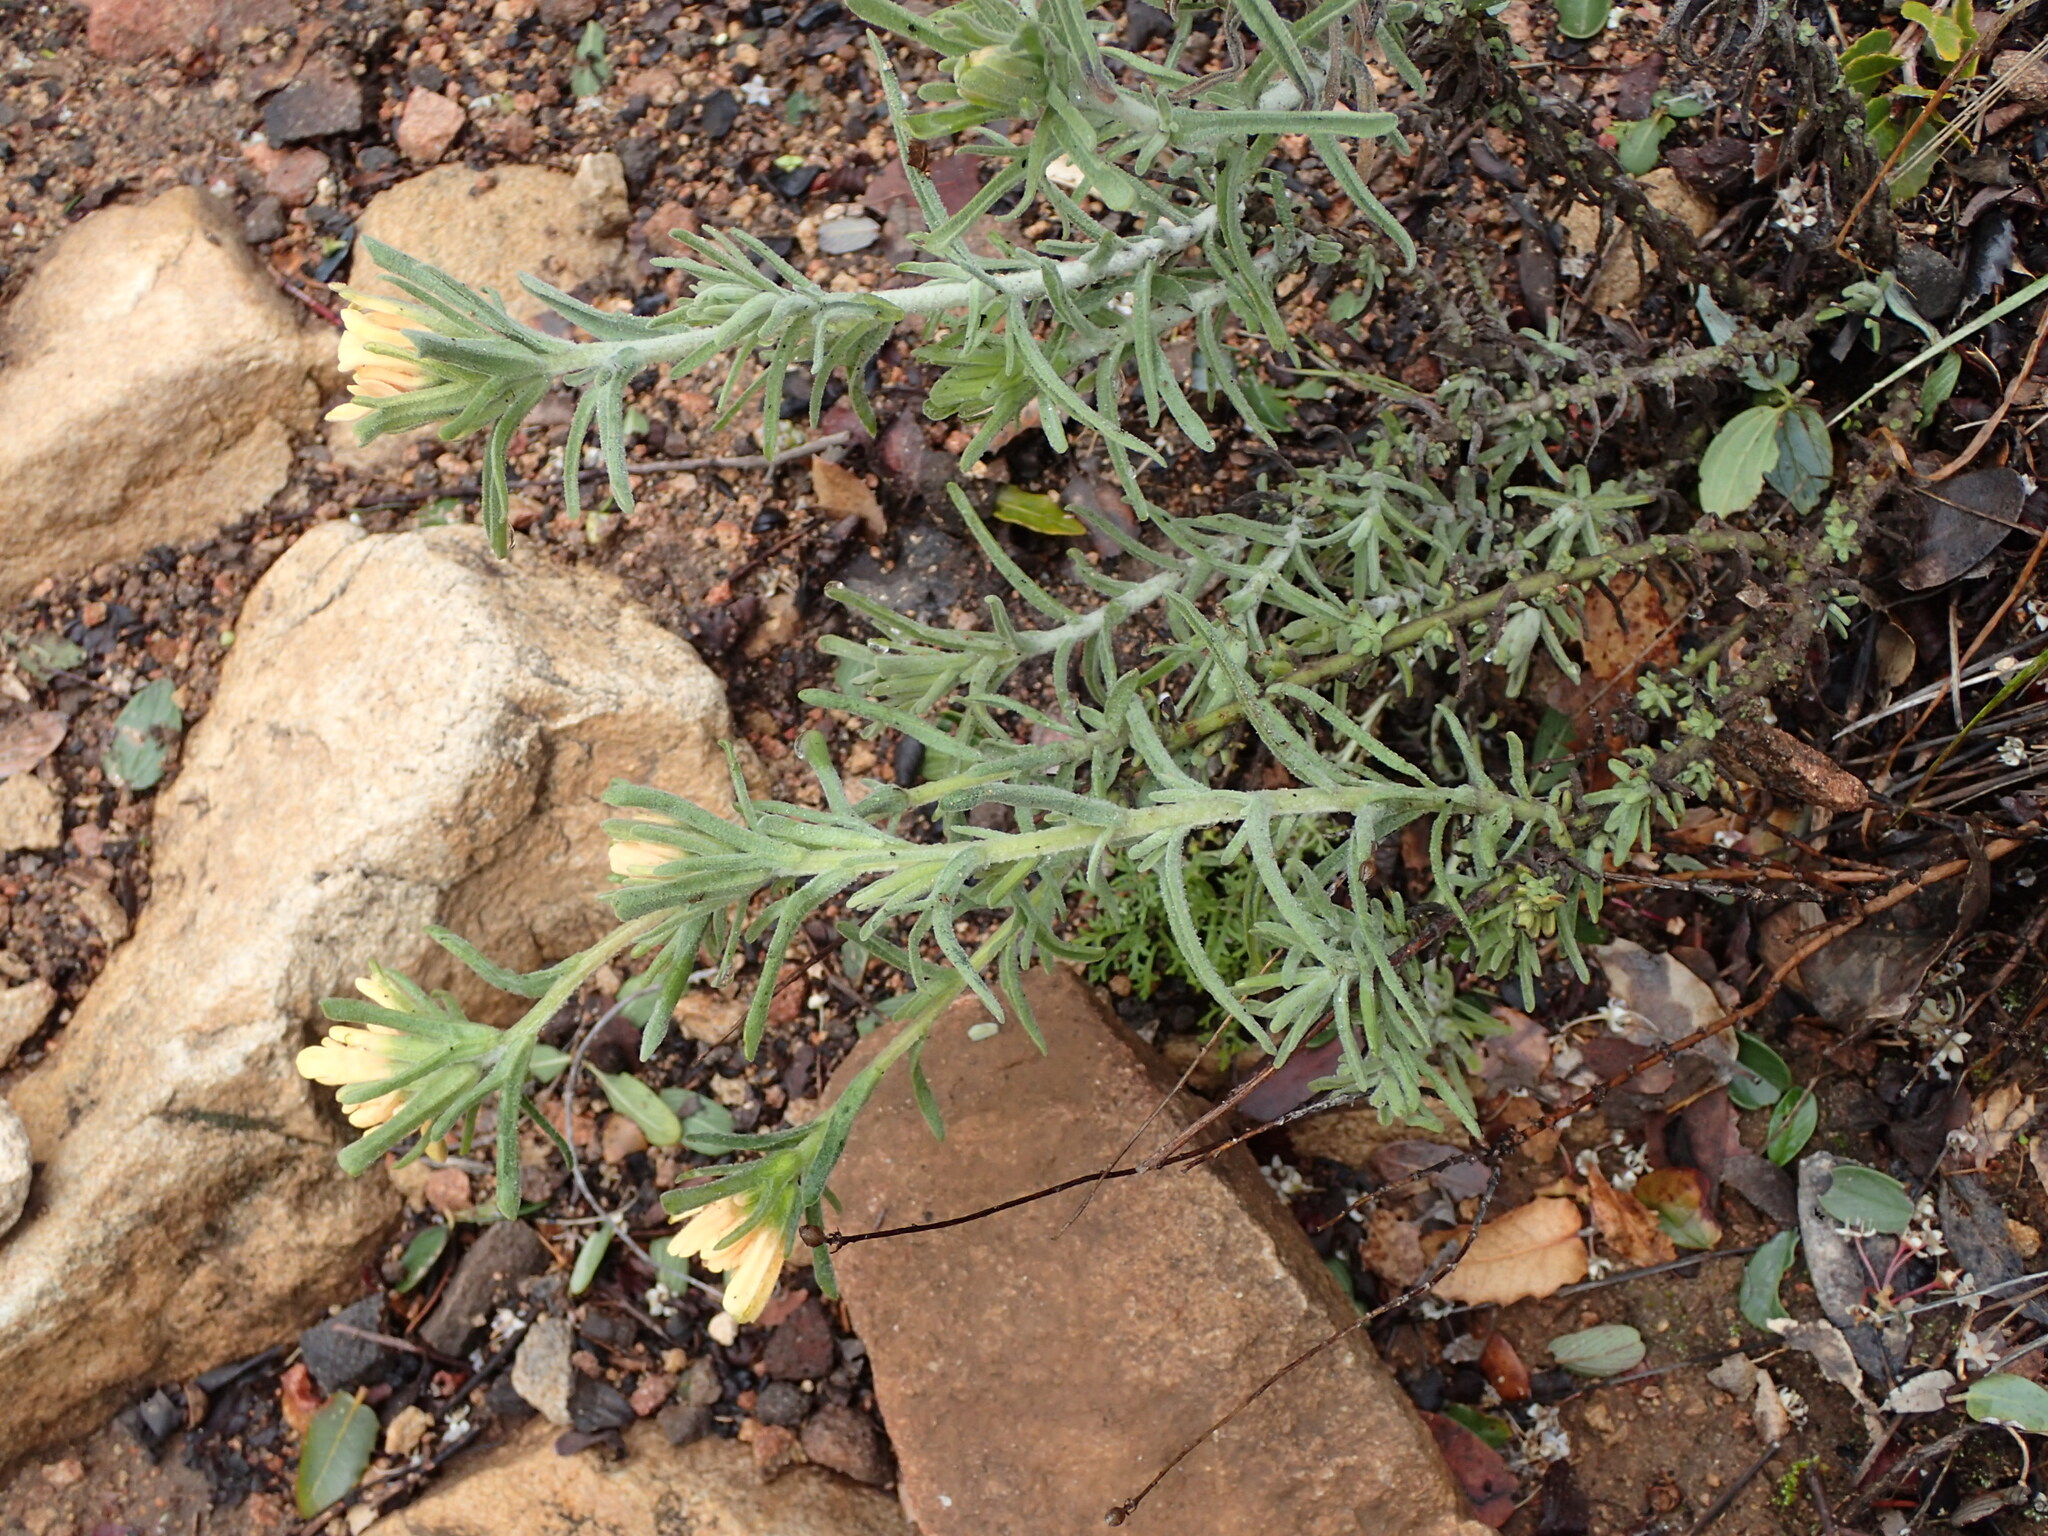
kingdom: Plantae
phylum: Tracheophyta
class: Magnoliopsida
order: Lamiales
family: Orobanchaceae
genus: Castilleja
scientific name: Castilleja foliolosa
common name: Woolly indian paintbrush
